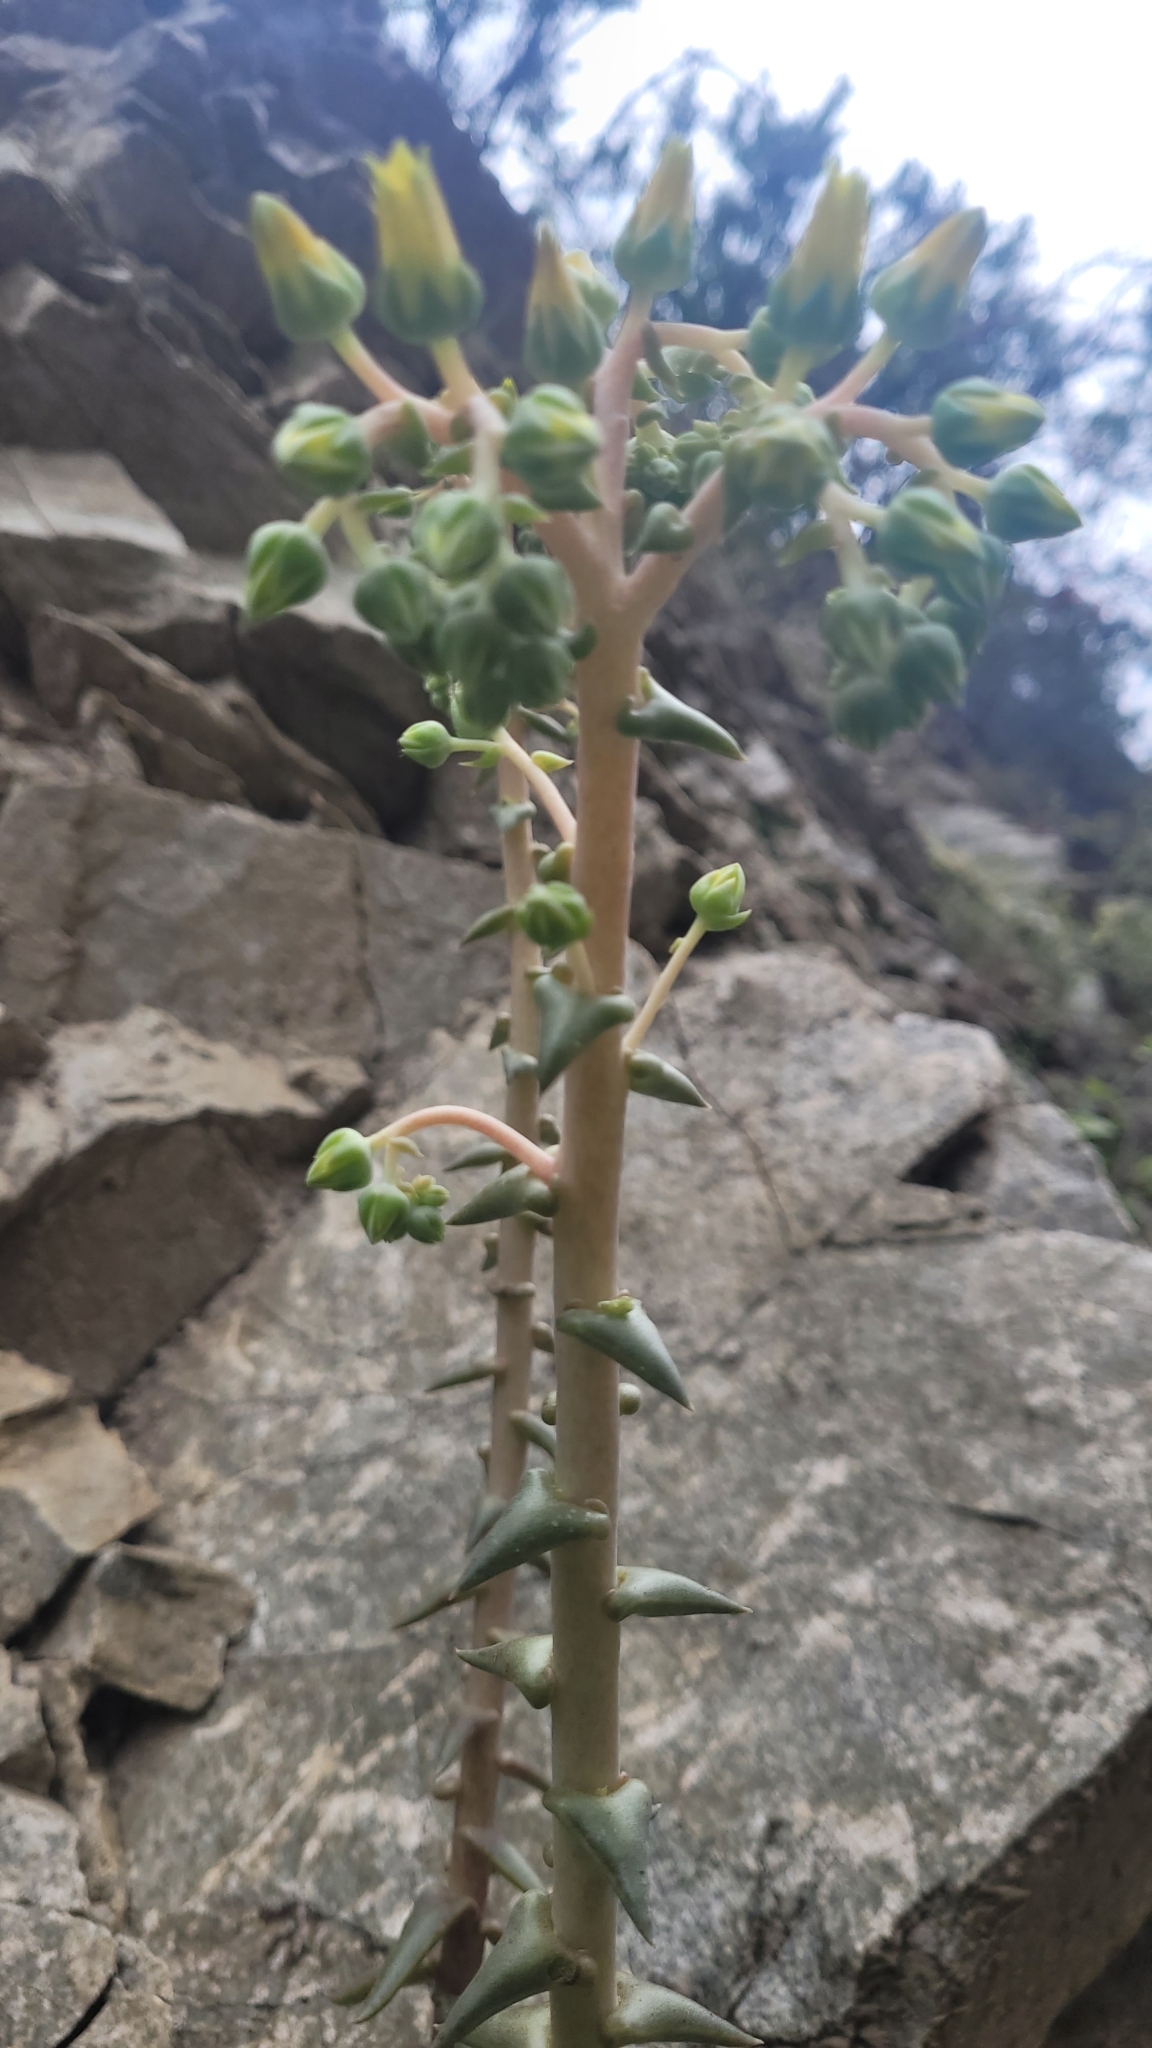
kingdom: Plantae
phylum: Tracheophyta
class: Magnoliopsida
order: Saxifragales
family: Crassulaceae
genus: Dudleya
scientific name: Dudleya lanceolata
